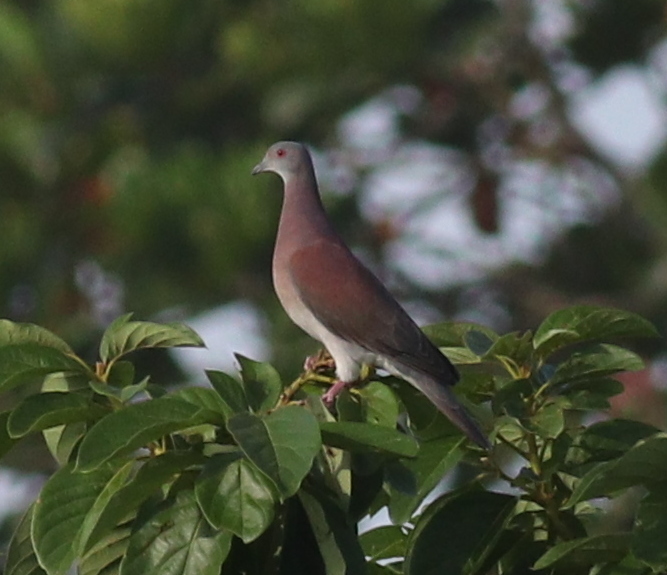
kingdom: Animalia
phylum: Chordata
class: Aves
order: Columbiformes
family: Columbidae
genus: Patagioenas
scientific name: Patagioenas cayennensis
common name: Pale-vented pigeon
